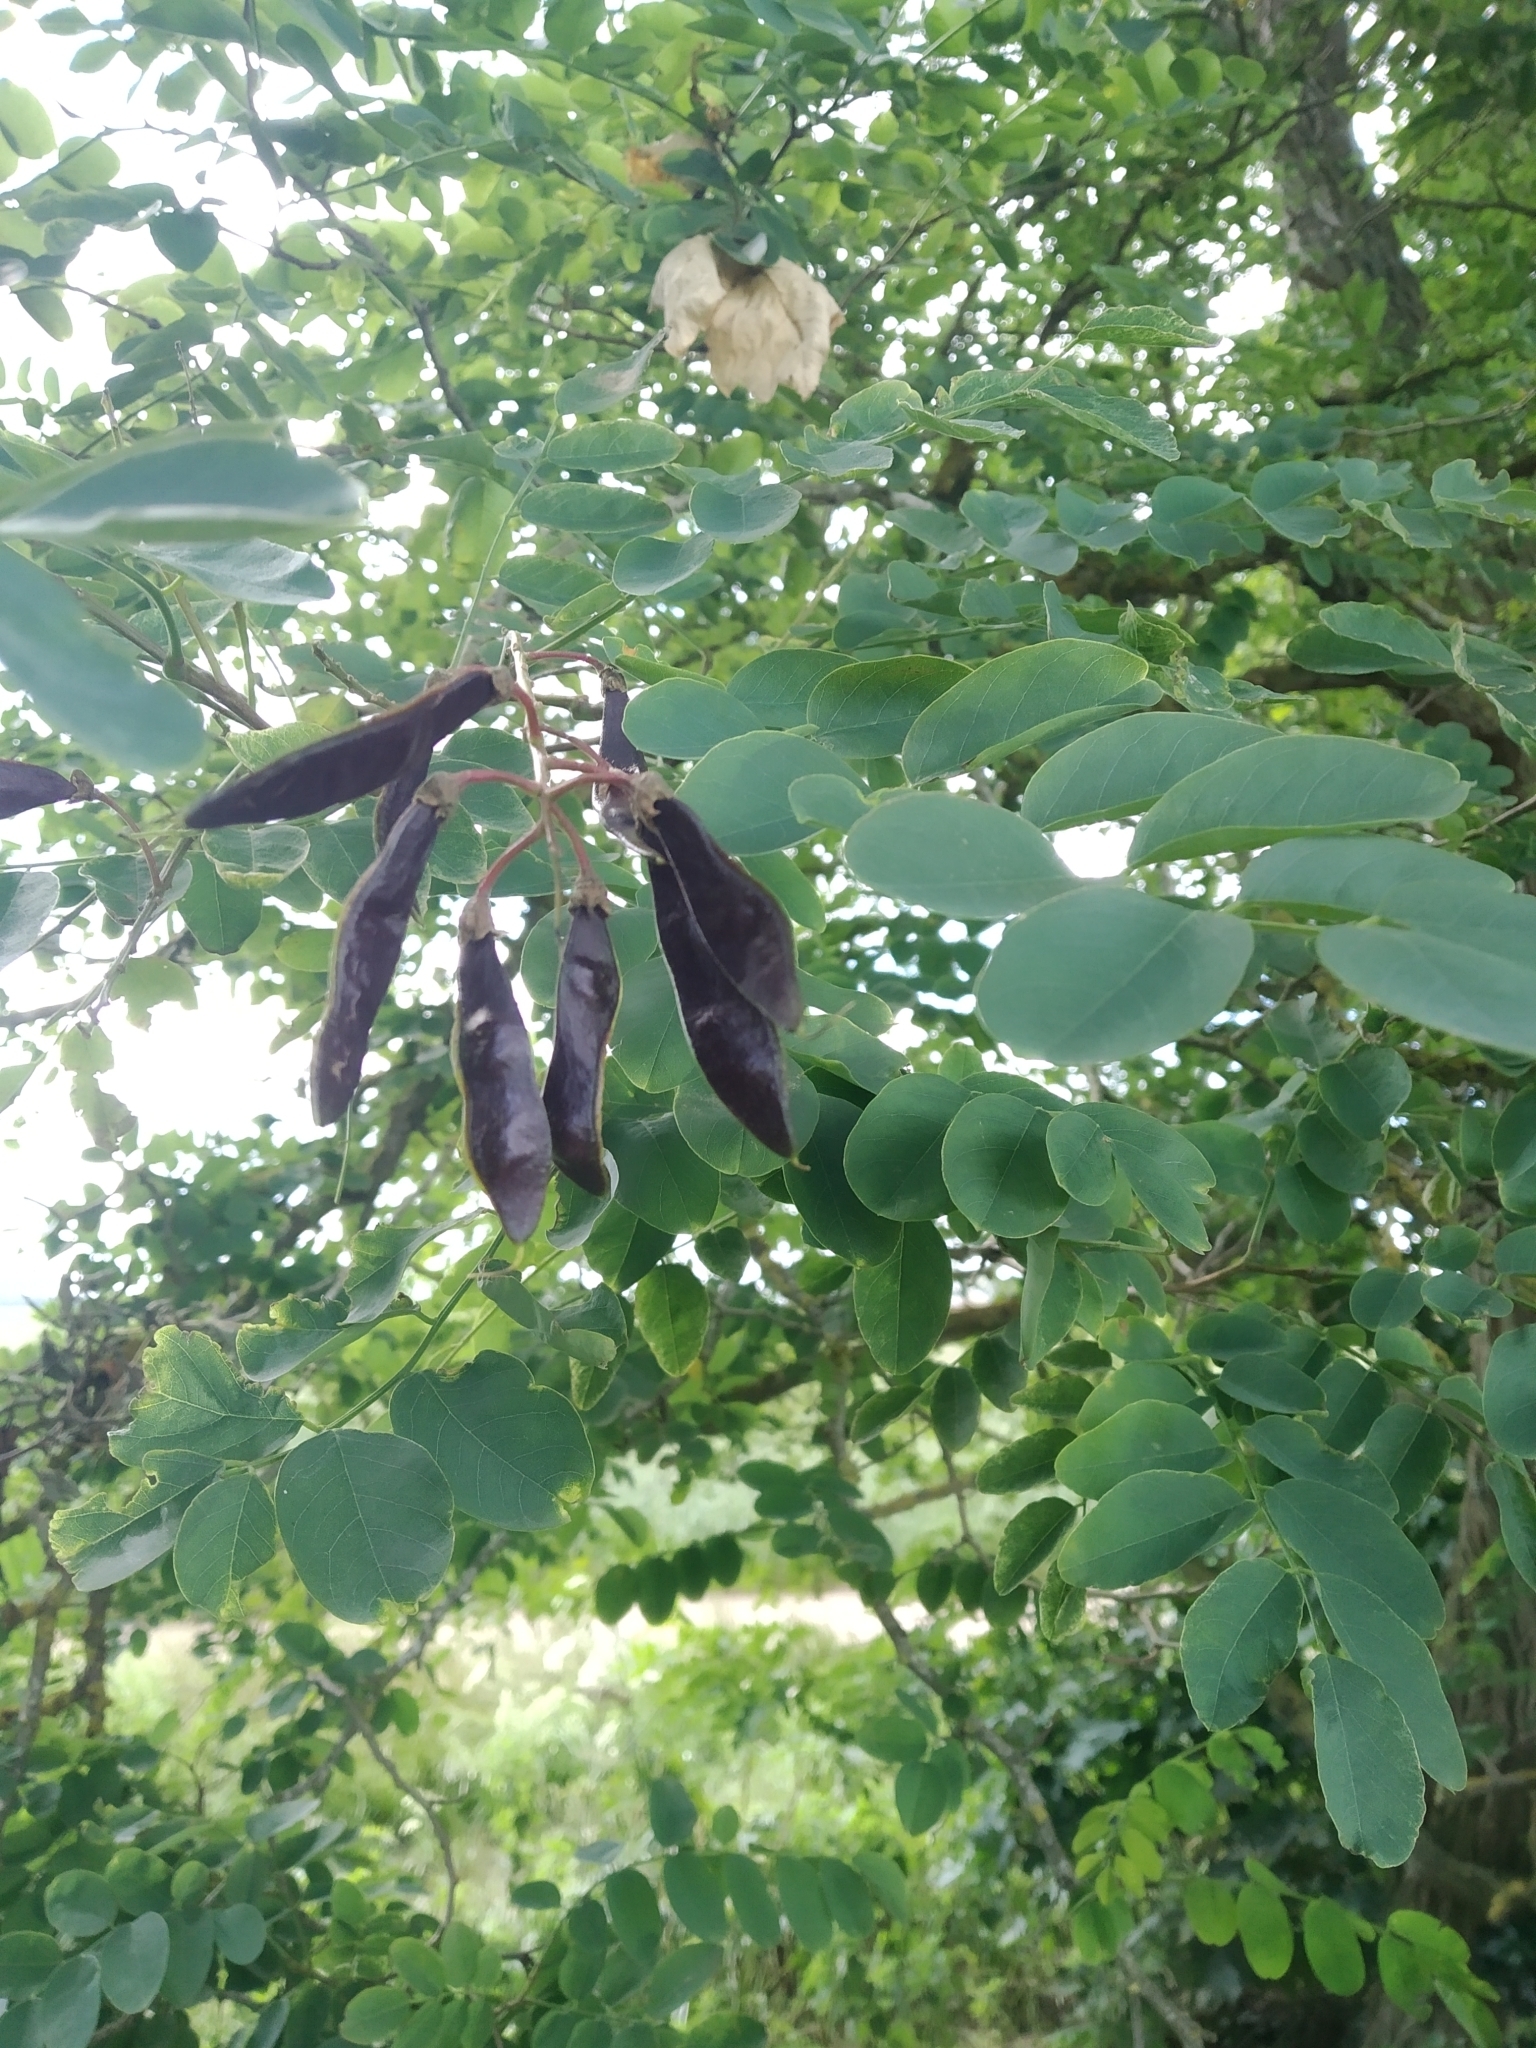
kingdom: Plantae
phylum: Tracheophyta
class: Magnoliopsida
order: Fabales
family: Fabaceae
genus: Robinia
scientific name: Robinia pseudoacacia
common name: Black locust
